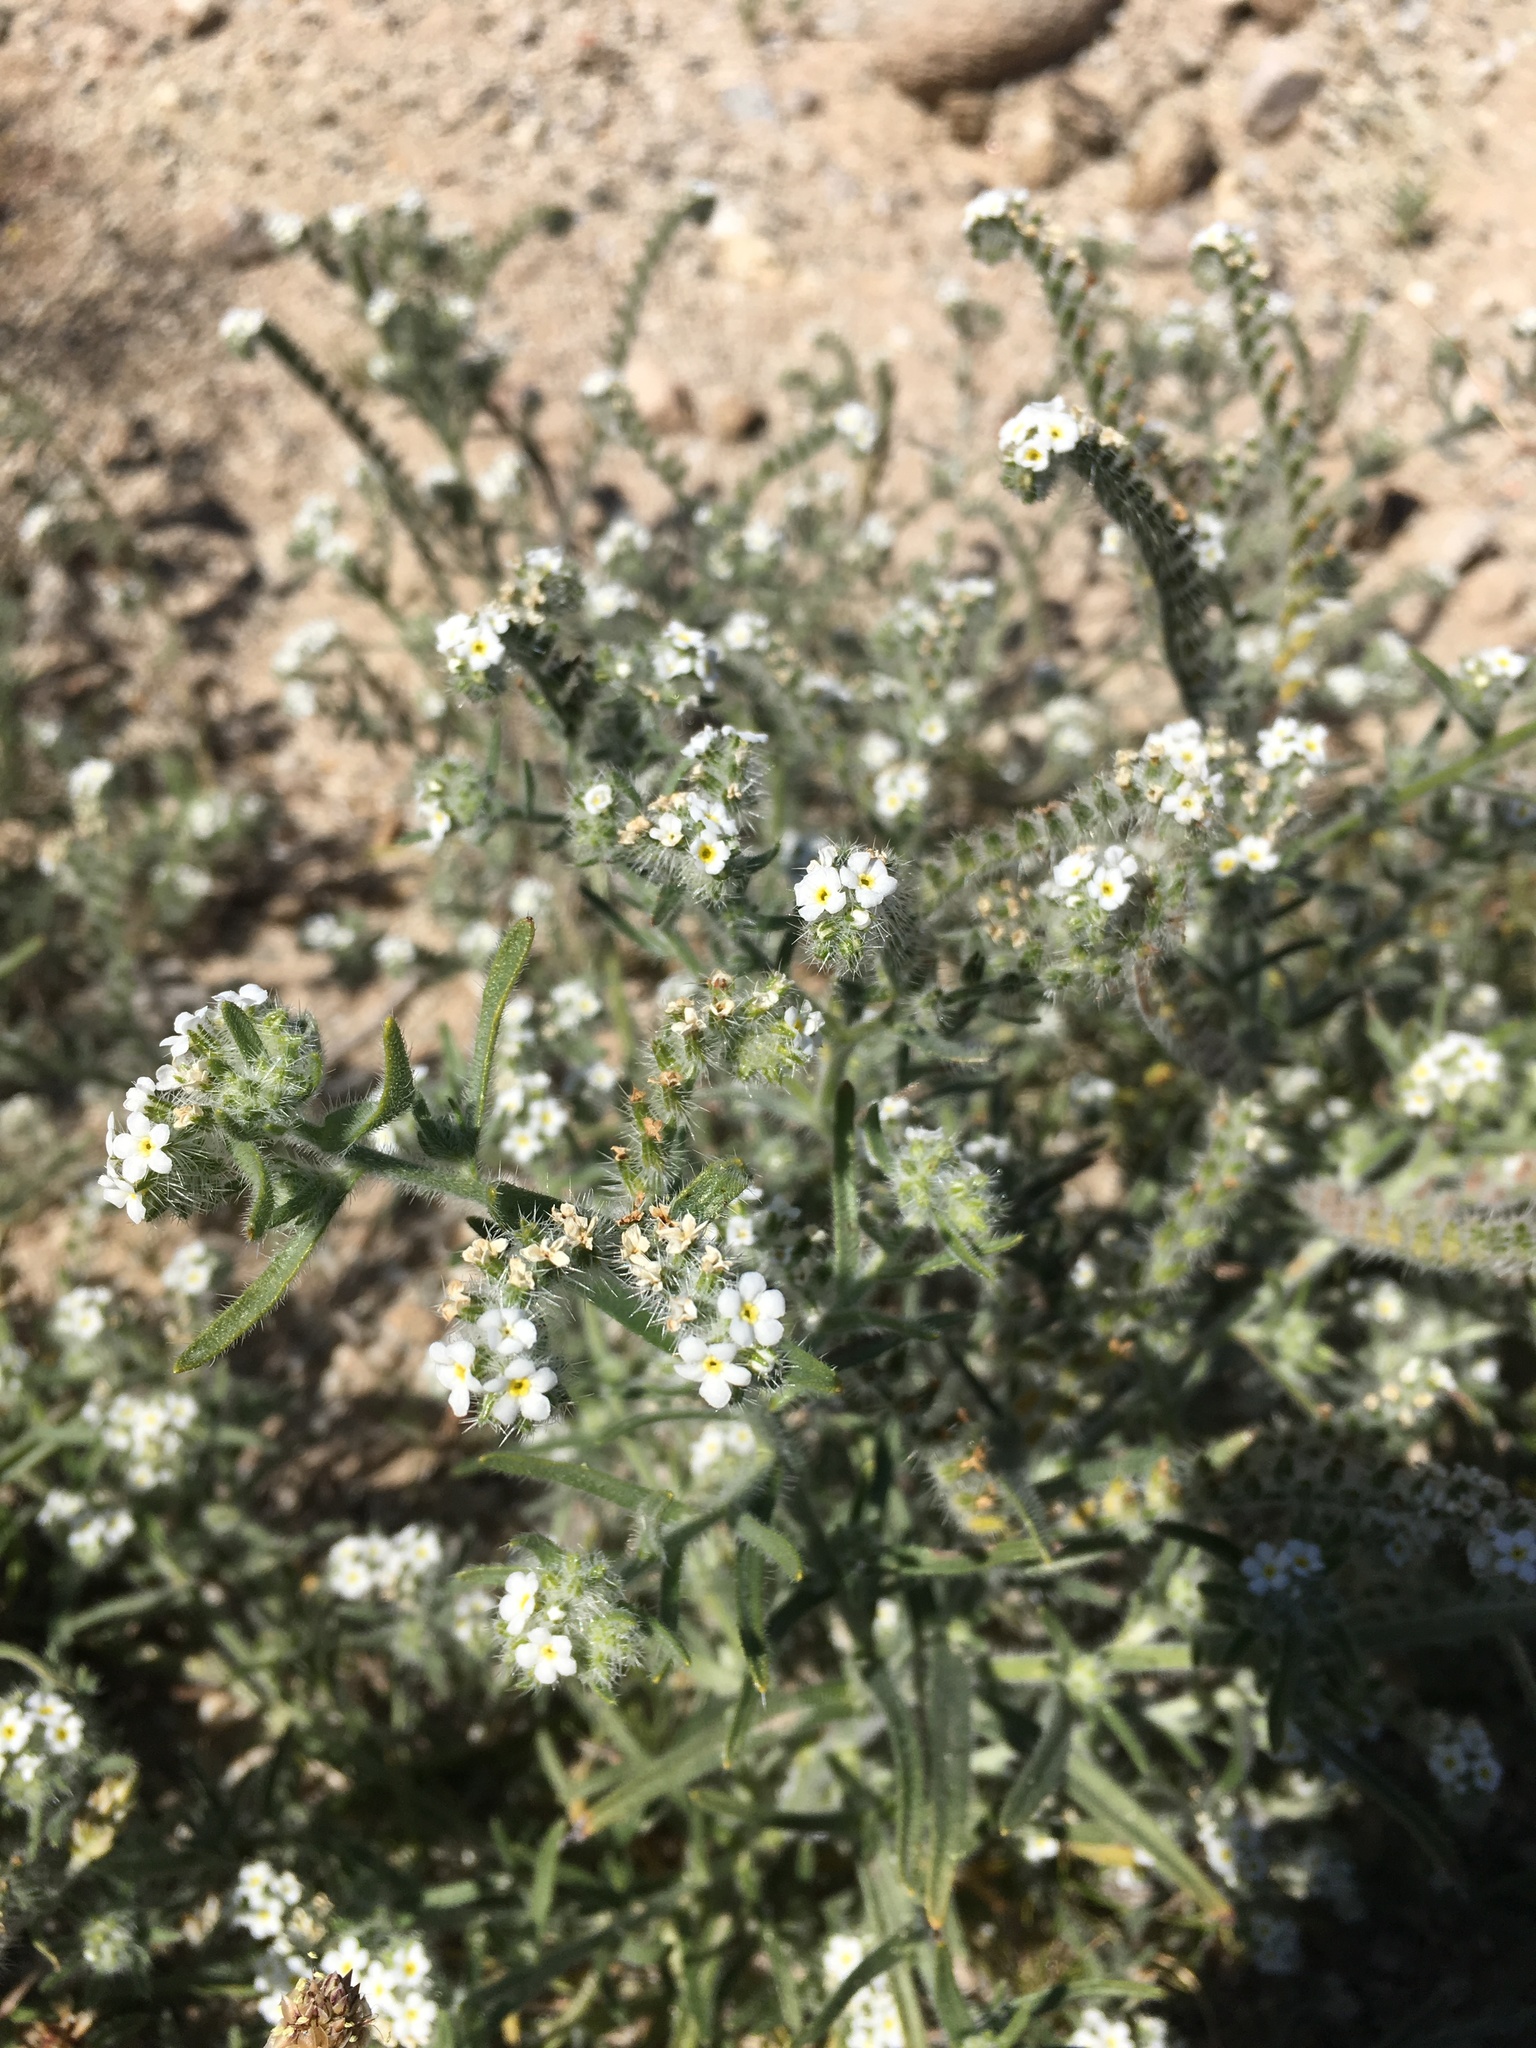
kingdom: Plantae
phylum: Tracheophyta
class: Magnoliopsida
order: Boraginales
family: Boraginaceae
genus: Johnstonella
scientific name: Johnstonella angustifolia
